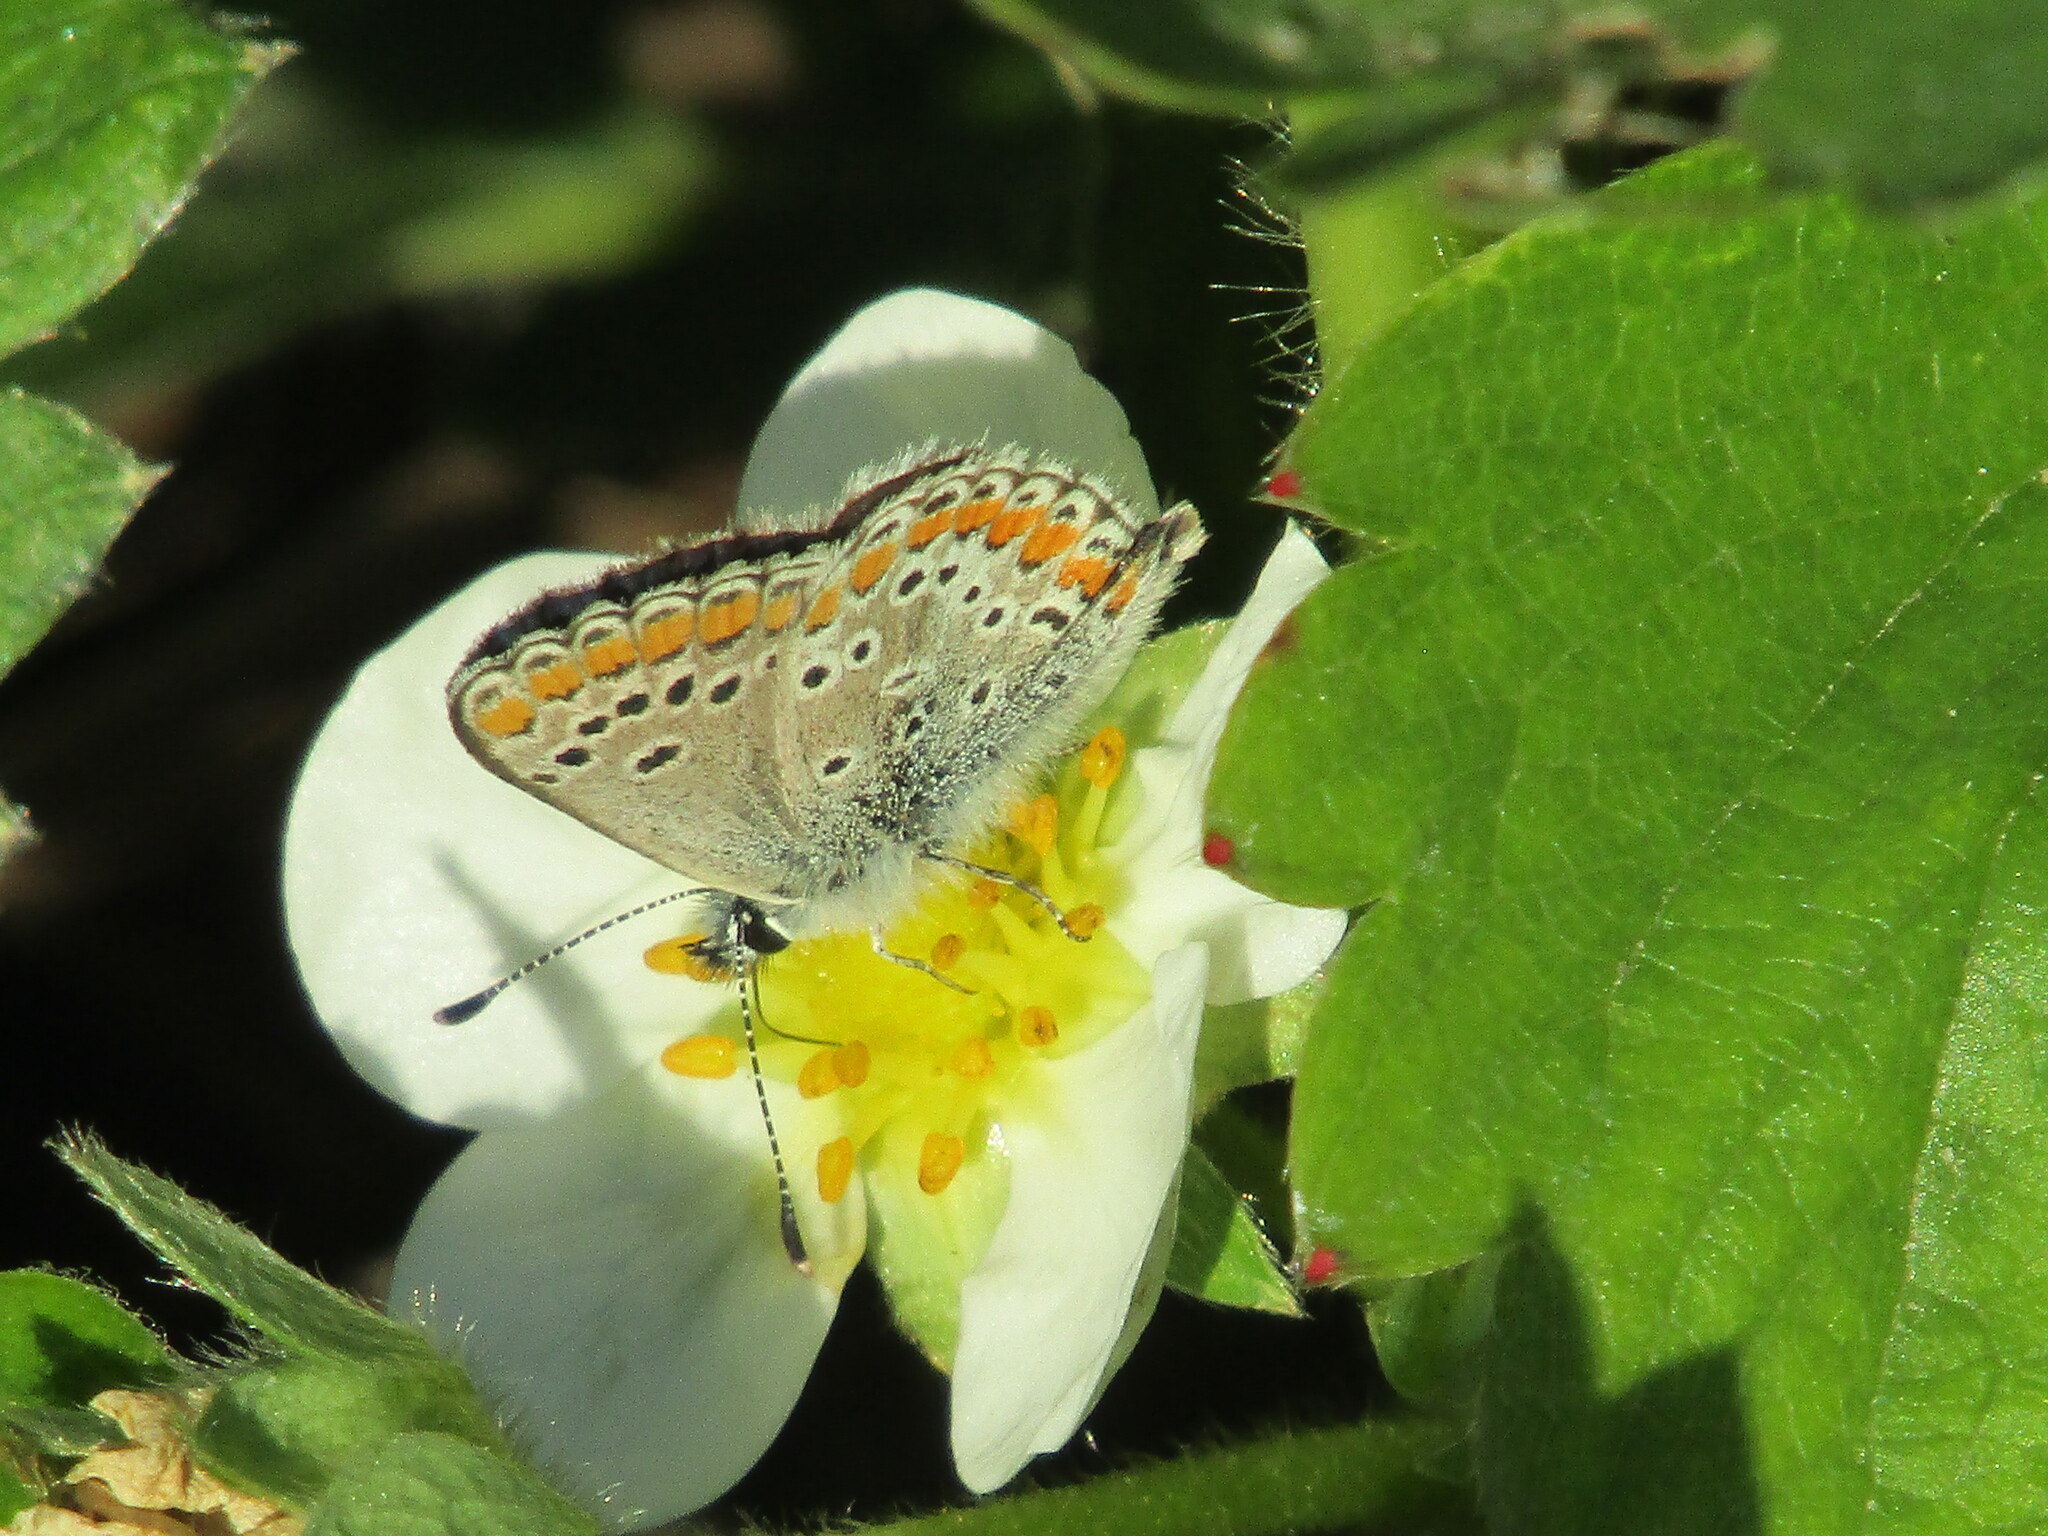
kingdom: Animalia
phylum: Arthropoda
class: Insecta
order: Lepidoptera
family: Lycaenidae
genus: Aricia
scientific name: Aricia agestis
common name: Brown argus
